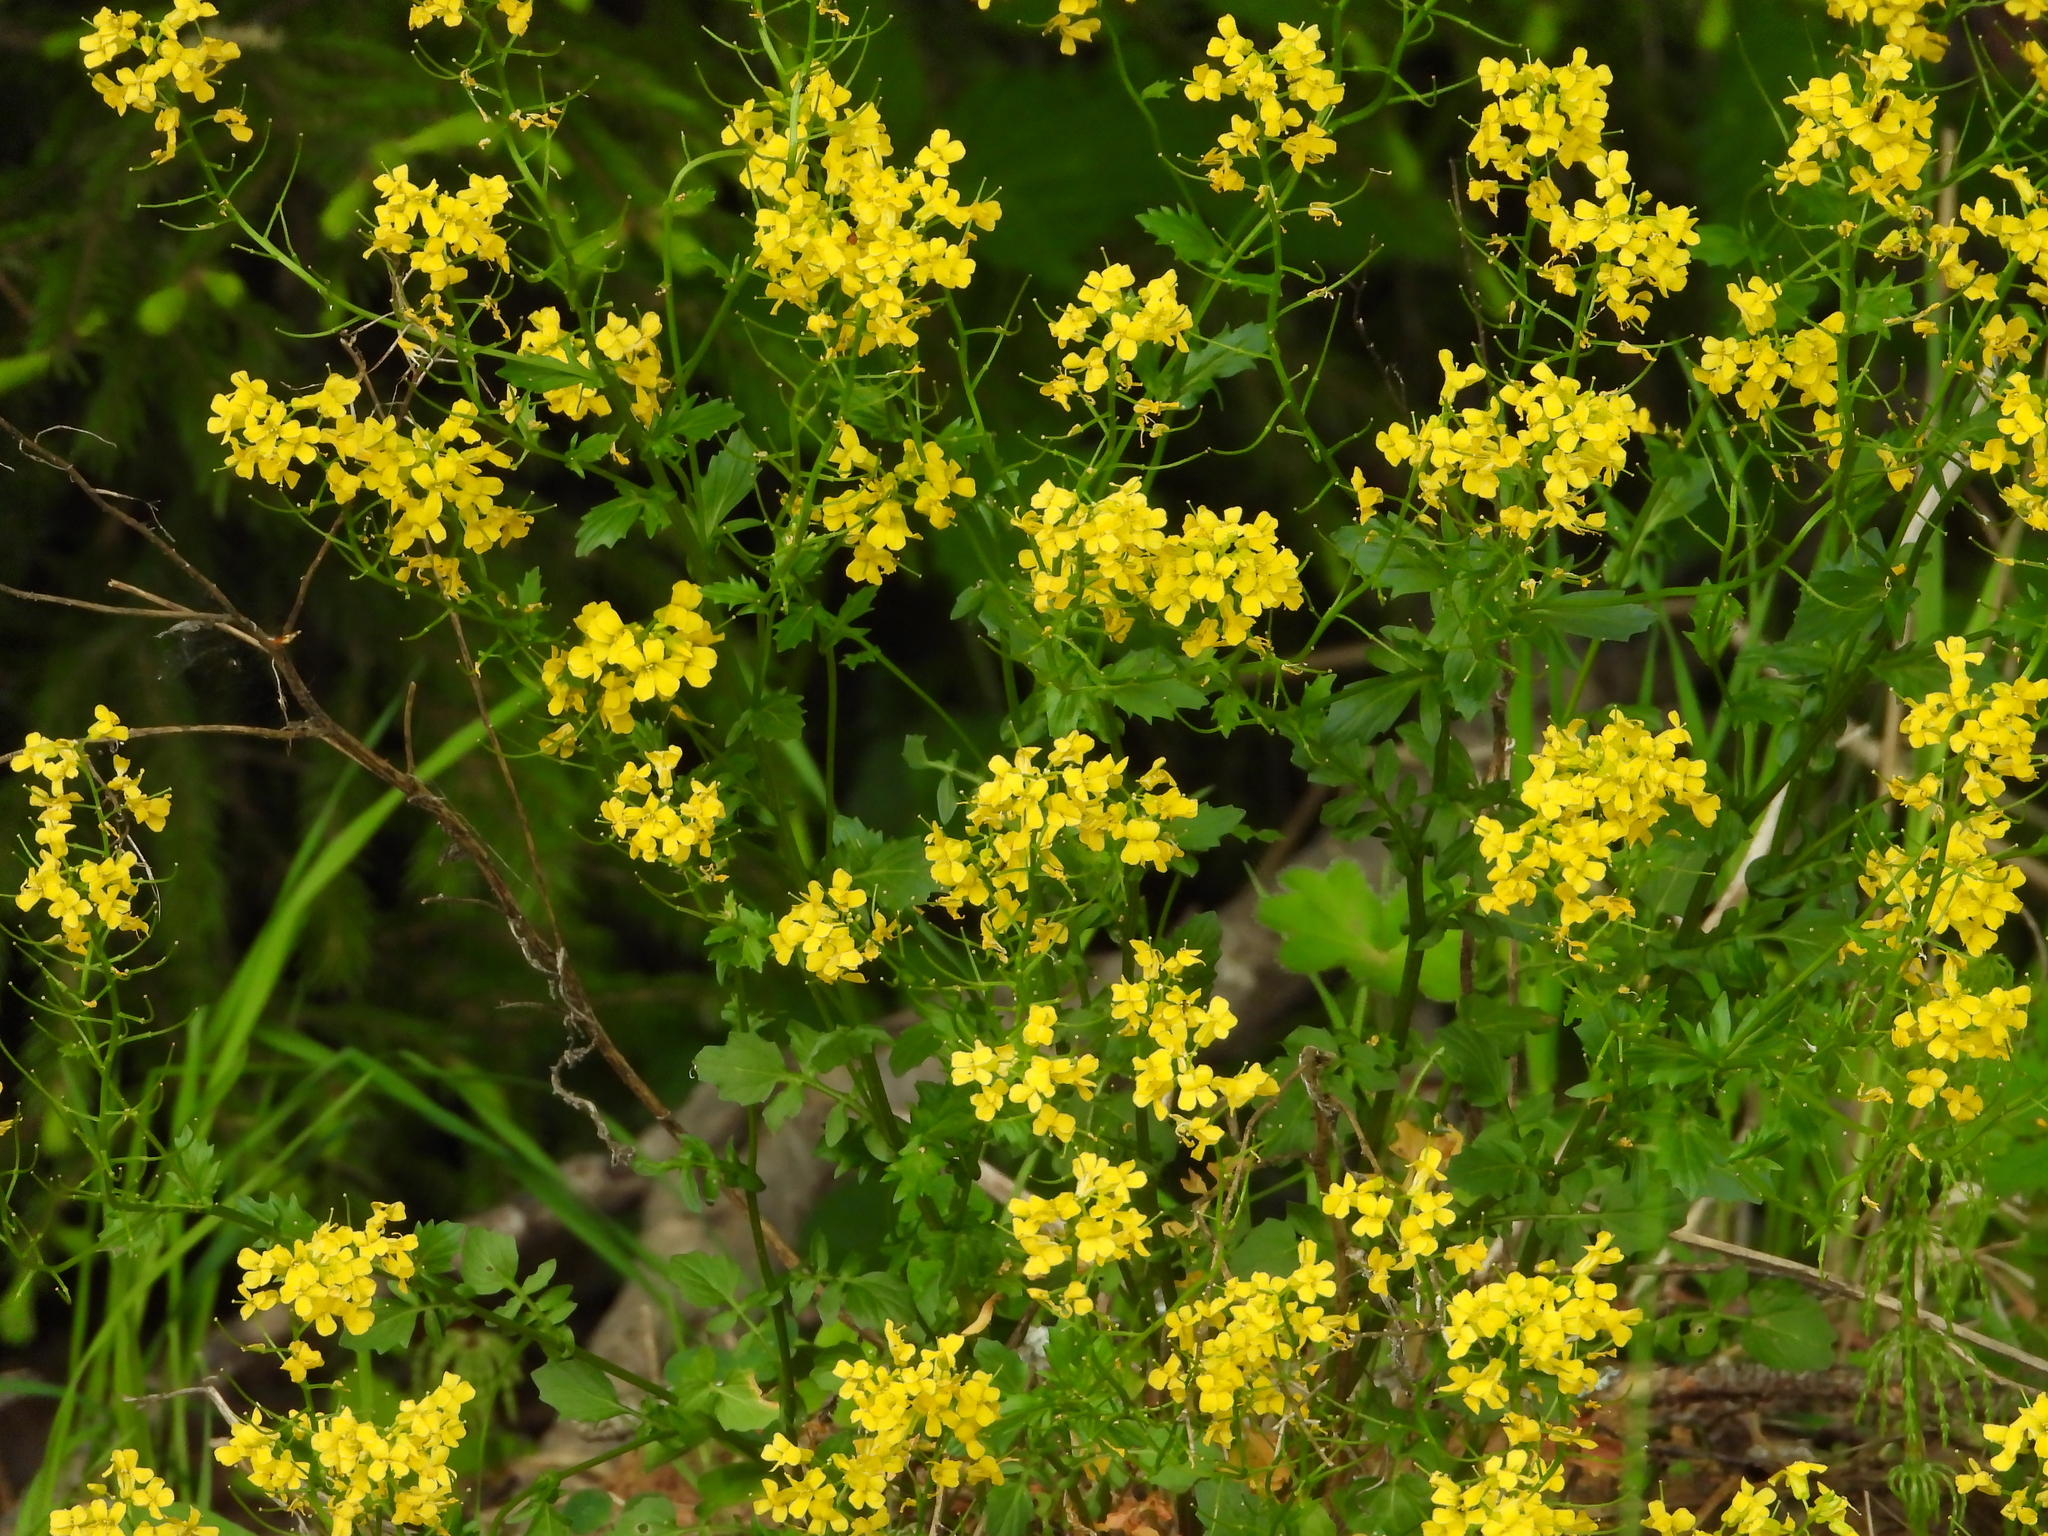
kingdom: Plantae
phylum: Tracheophyta
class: Magnoliopsida
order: Brassicales
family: Brassicaceae
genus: Barbarea
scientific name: Barbarea vulgaris
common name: Cressy-greens
